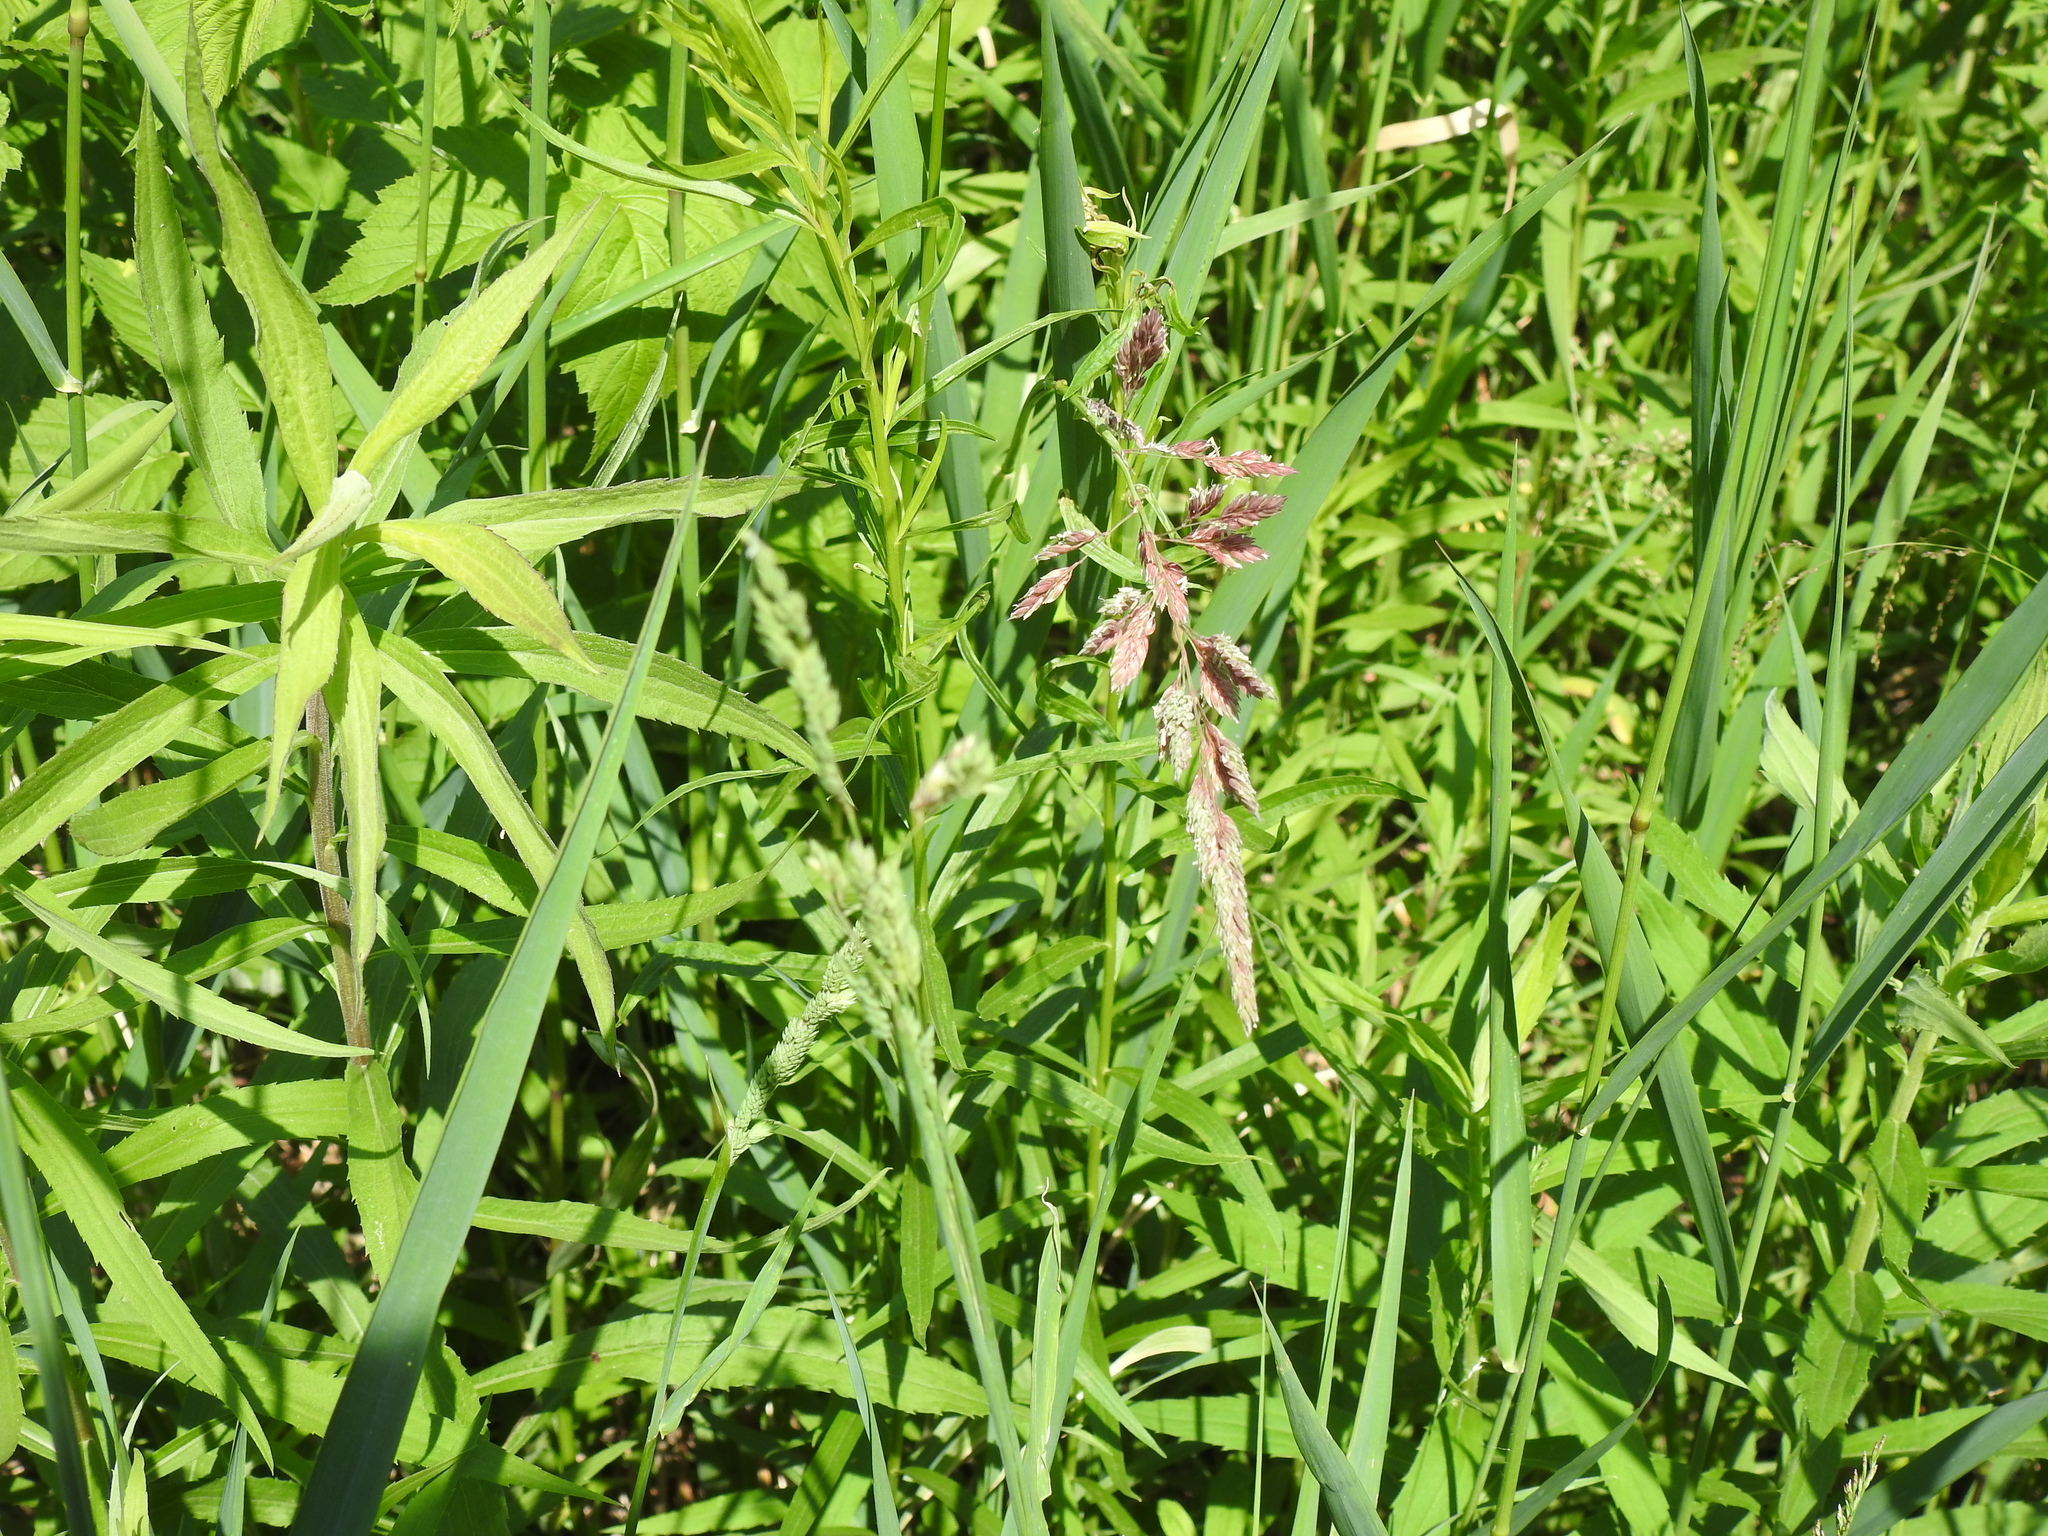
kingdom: Plantae
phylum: Tracheophyta
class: Liliopsida
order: Poales
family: Poaceae
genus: Phalaris
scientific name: Phalaris arundinacea
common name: Reed canary-grass
